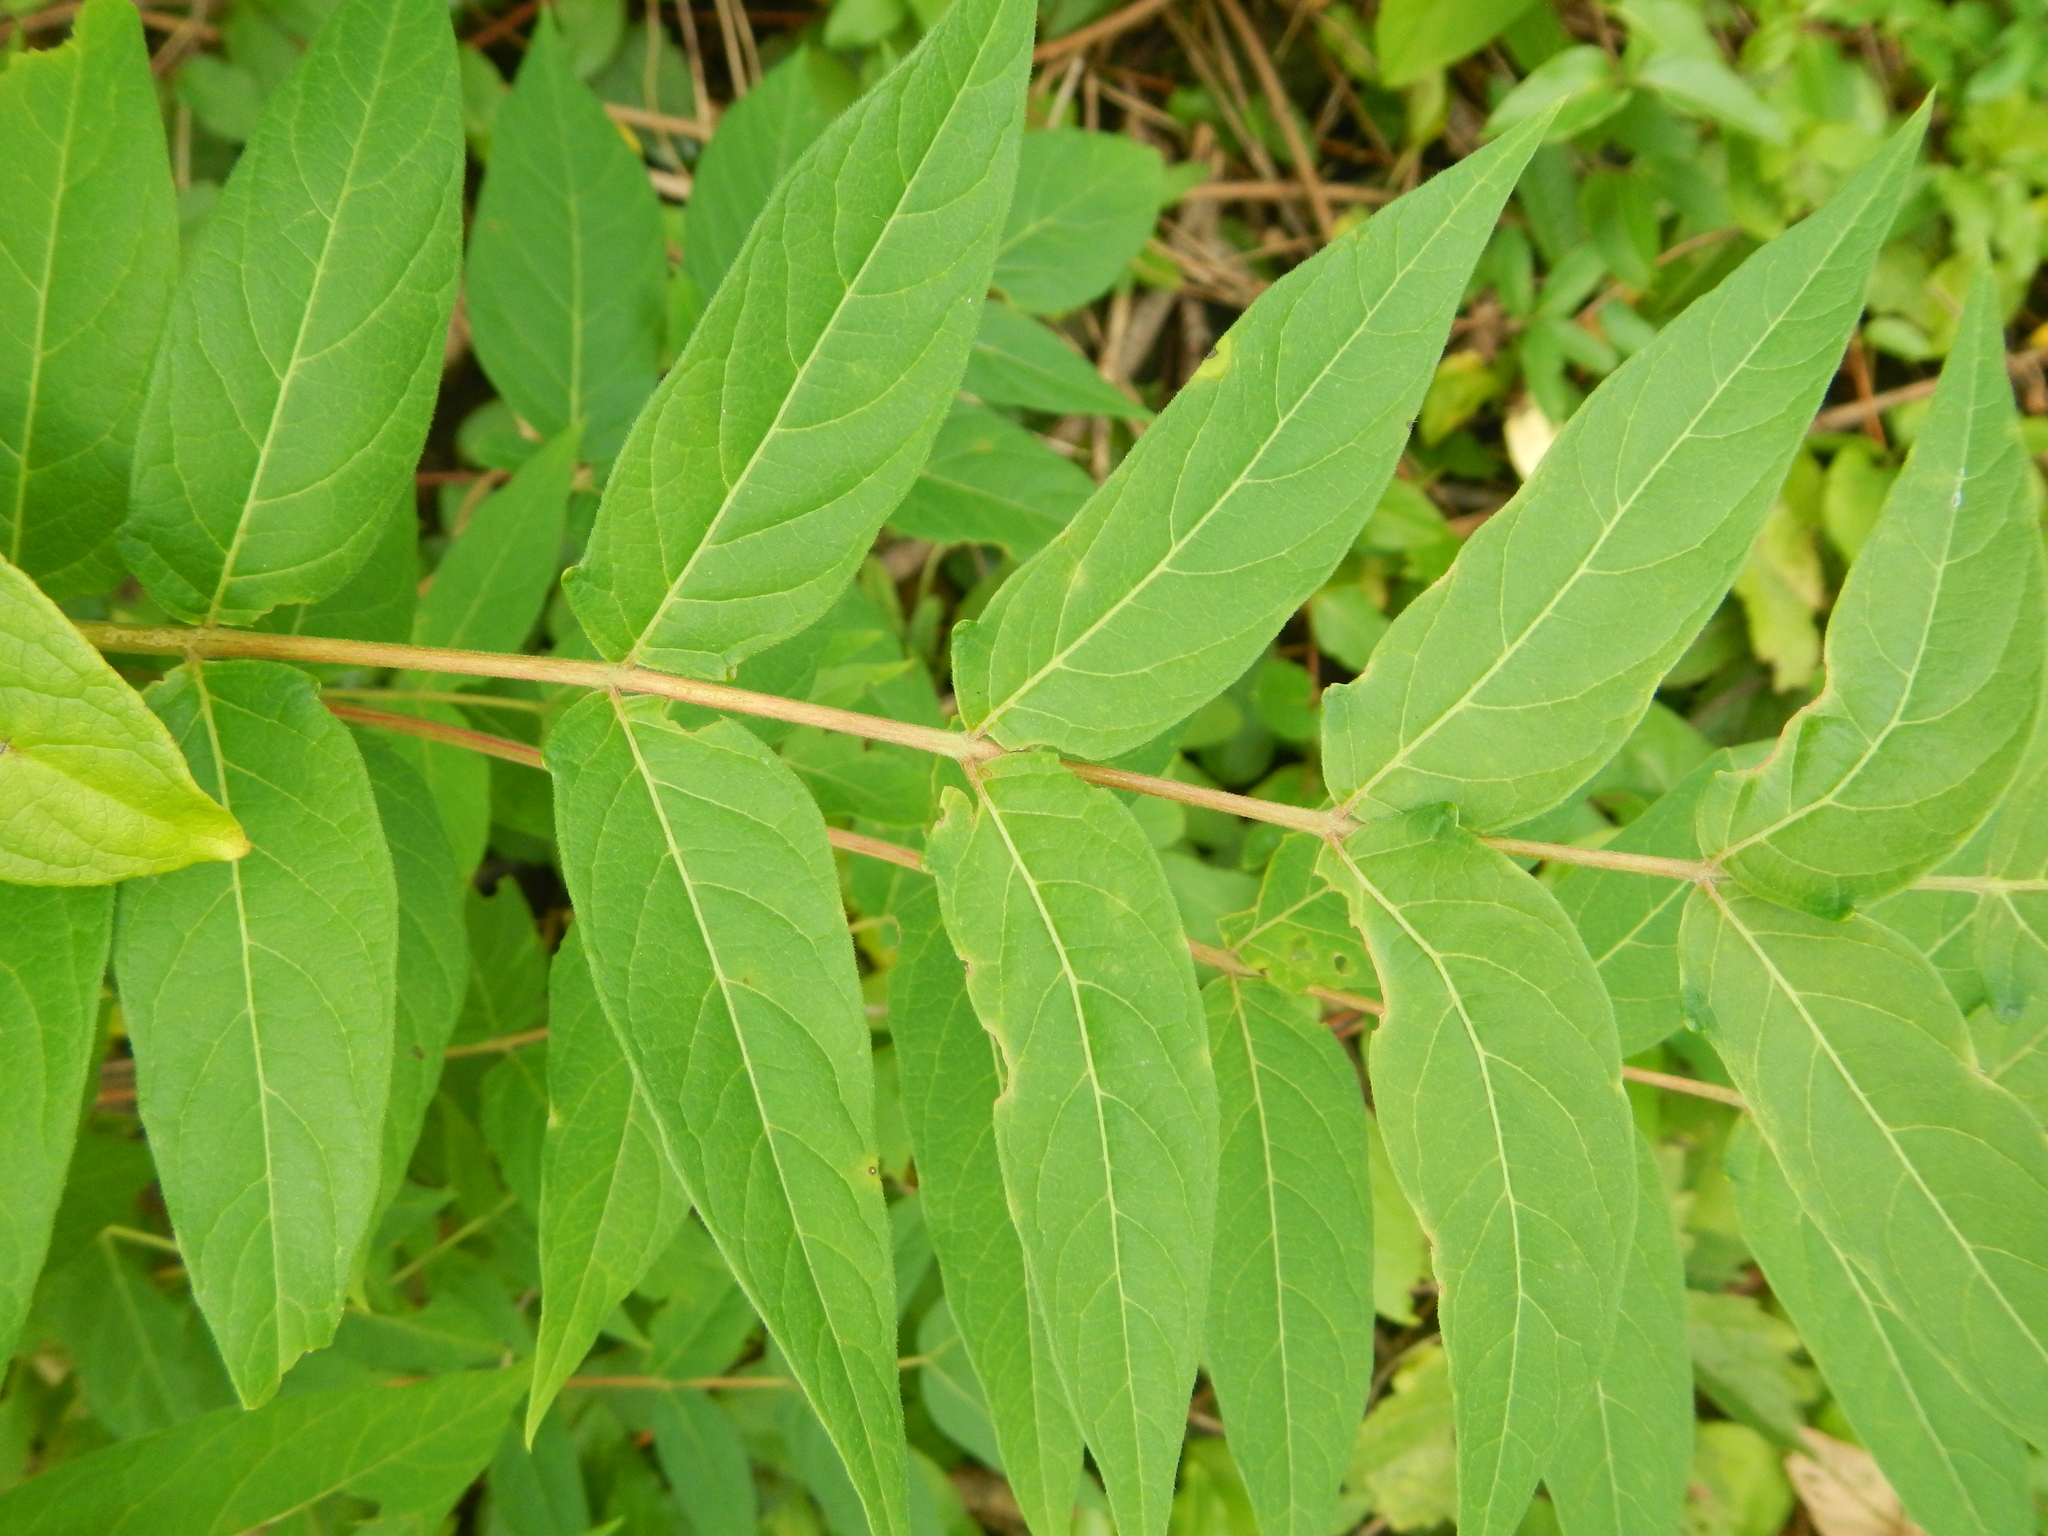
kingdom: Plantae
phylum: Tracheophyta
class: Magnoliopsida
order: Sapindales
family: Simaroubaceae
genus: Ailanthus
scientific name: Ailanthus altissima
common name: Tree-of-heaven
